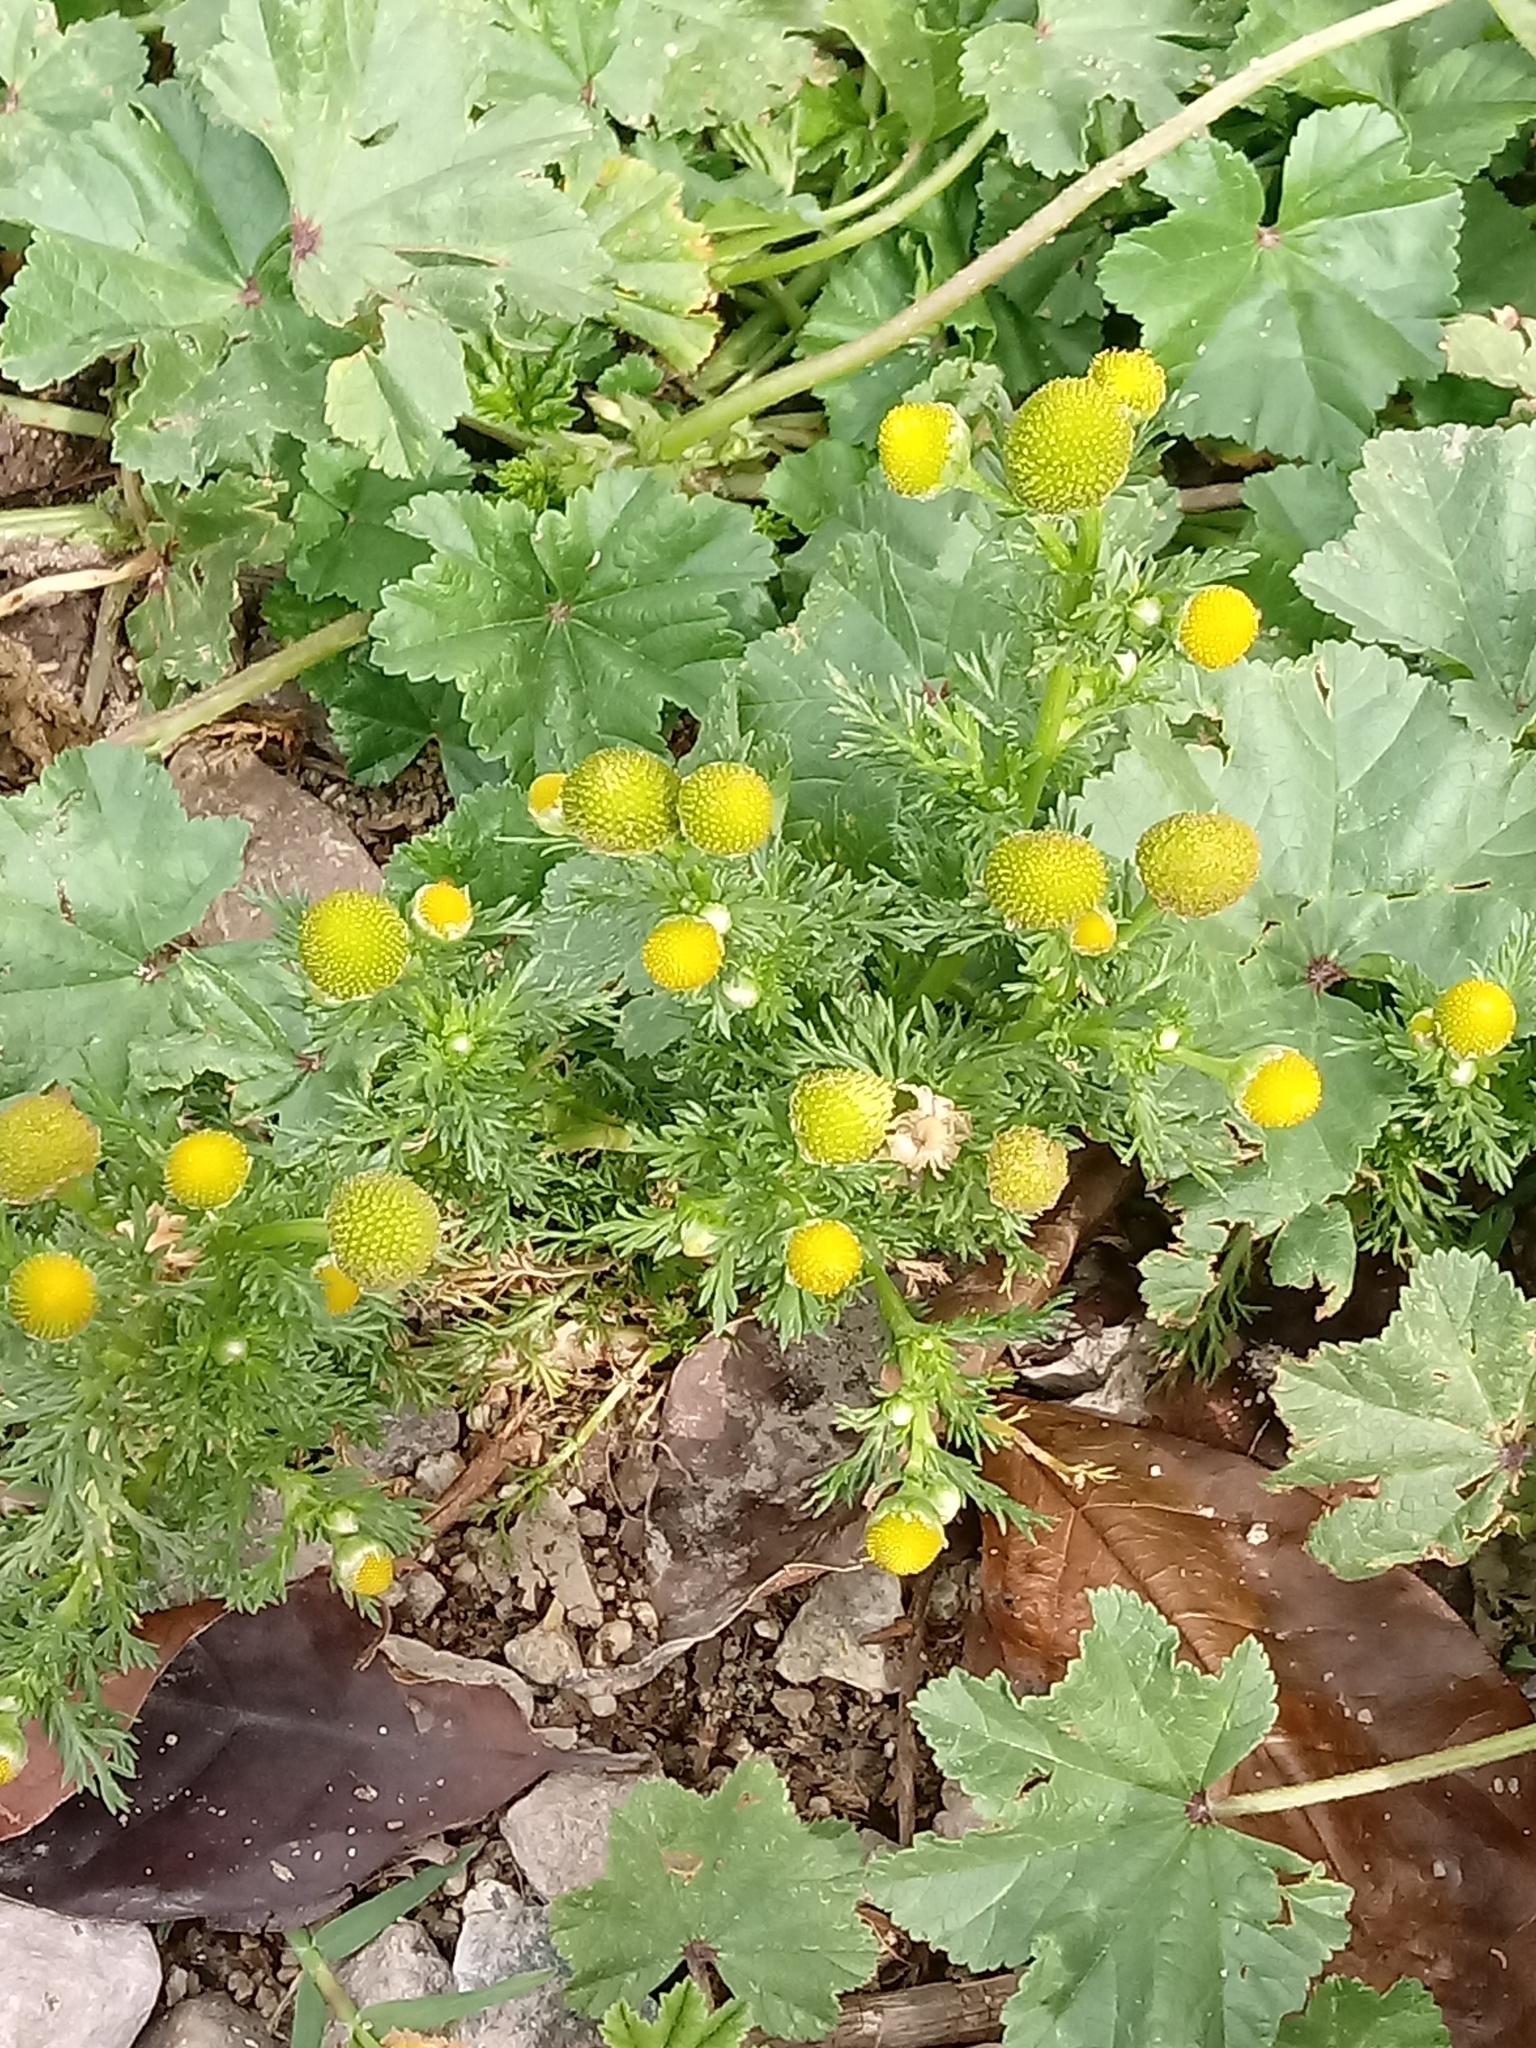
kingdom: Plantae
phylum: Tracheophyta
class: Magnoliopsida
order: Asterales
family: Asteraceae
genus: Matricaria
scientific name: Matricaria discoidea
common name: Disc mayweed
